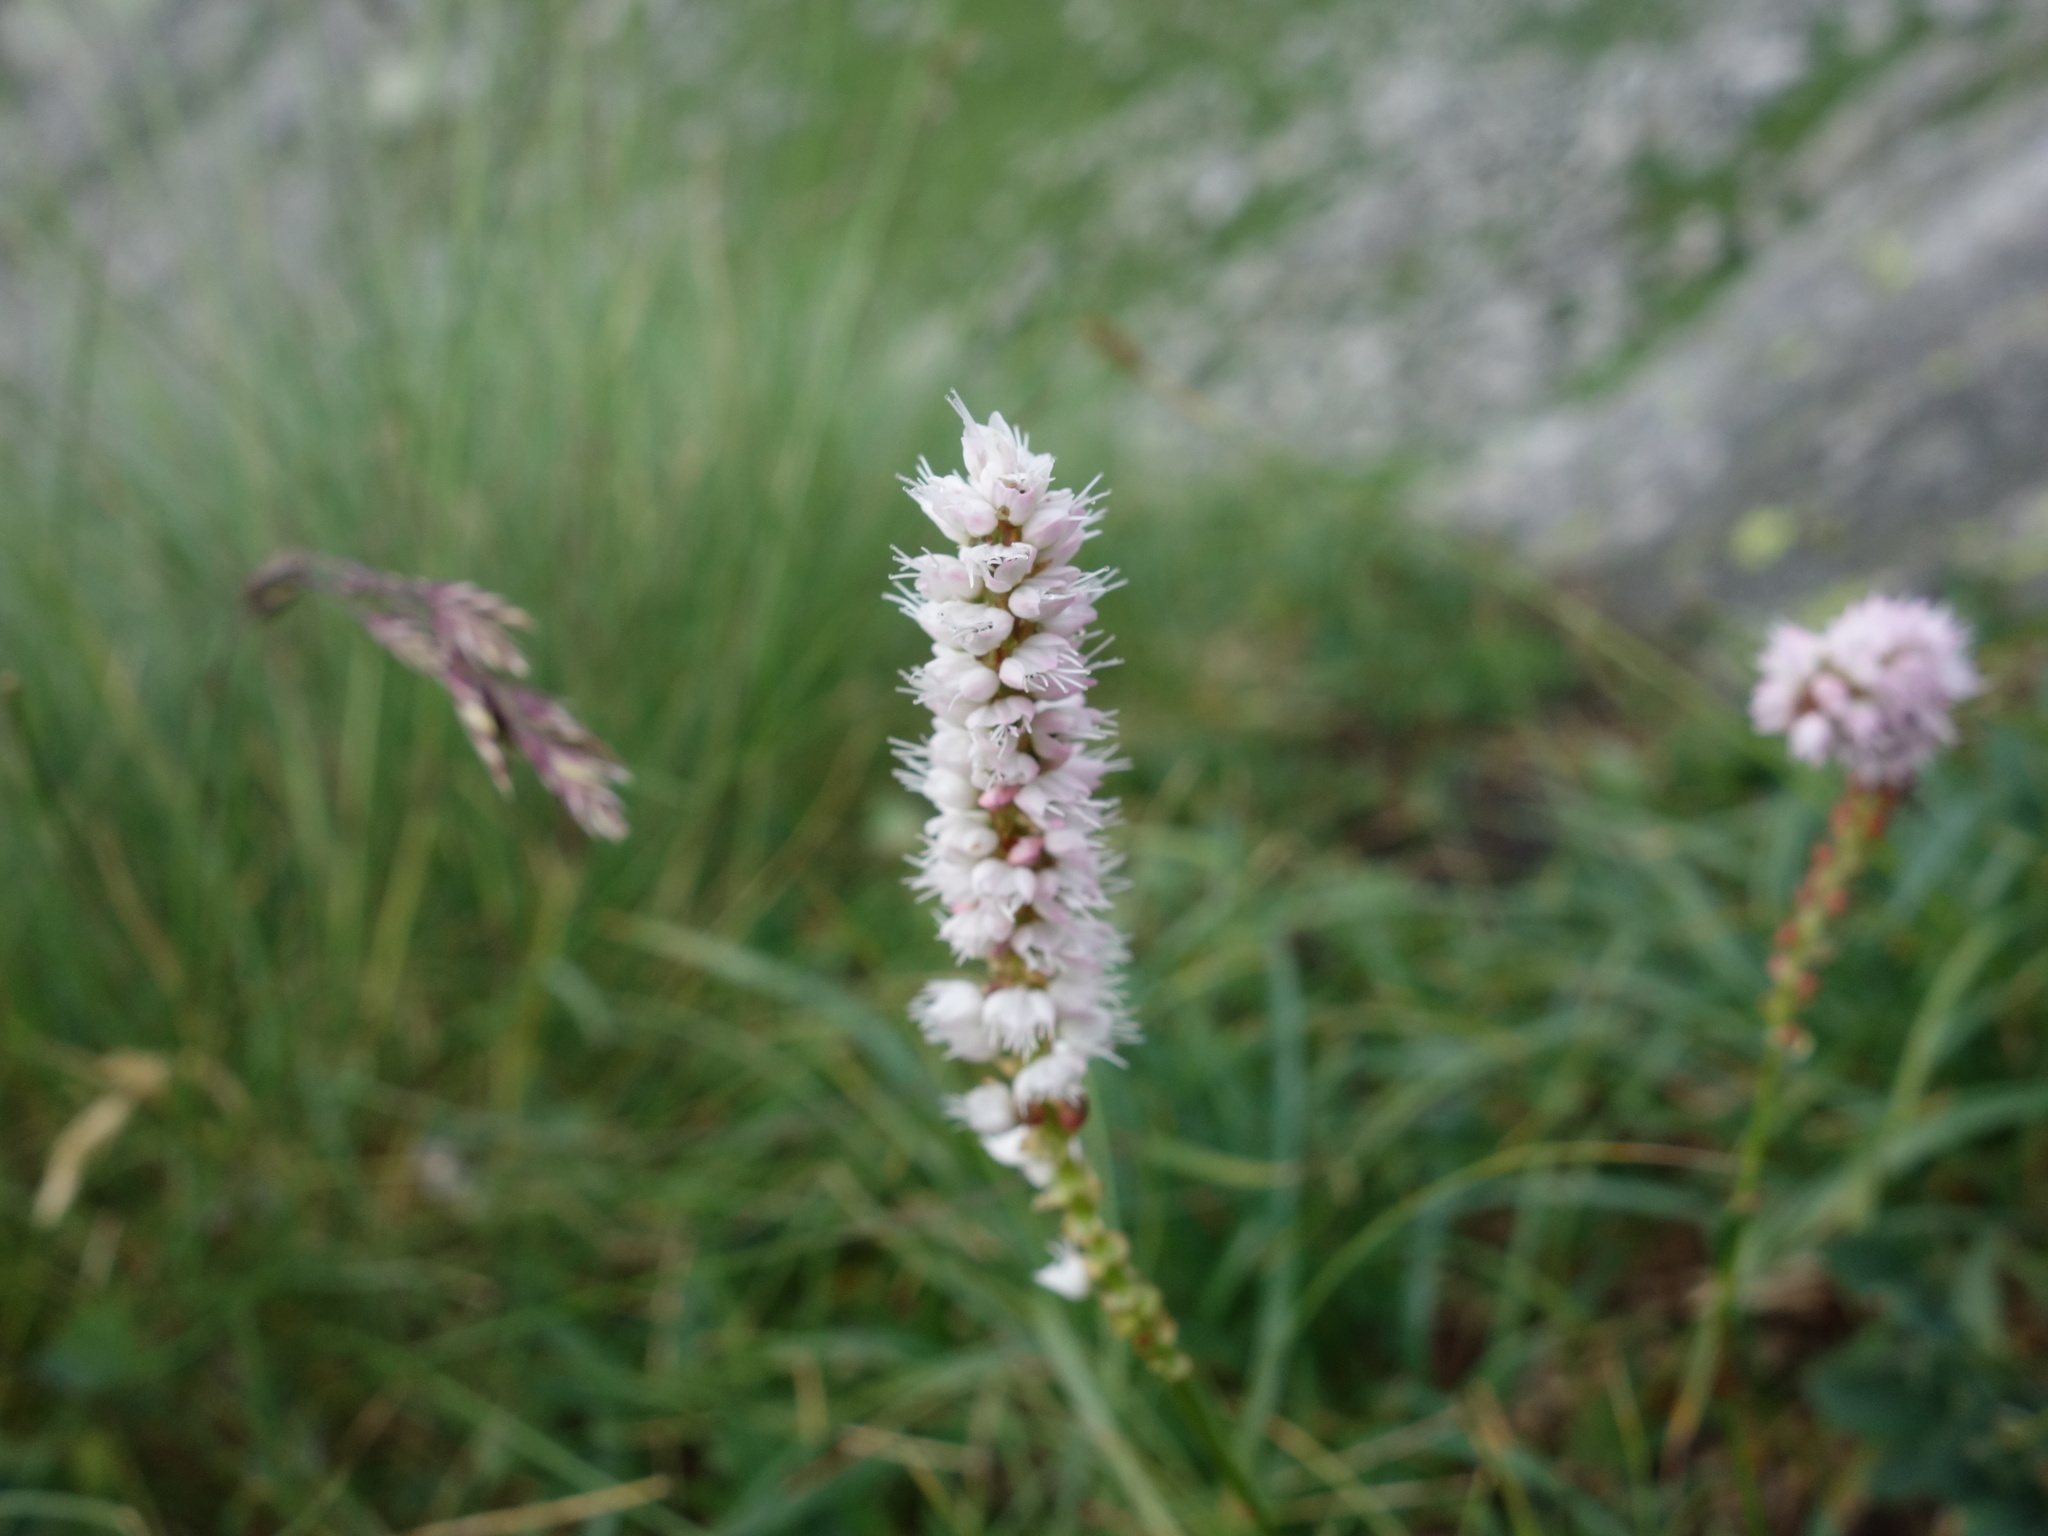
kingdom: Plantae
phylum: Tracheophyta
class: Magnoliopsida
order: Caryophyllales
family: Polygonaceae
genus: Bistorta
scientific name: Bistorta vivipara
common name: Alpine bistort
